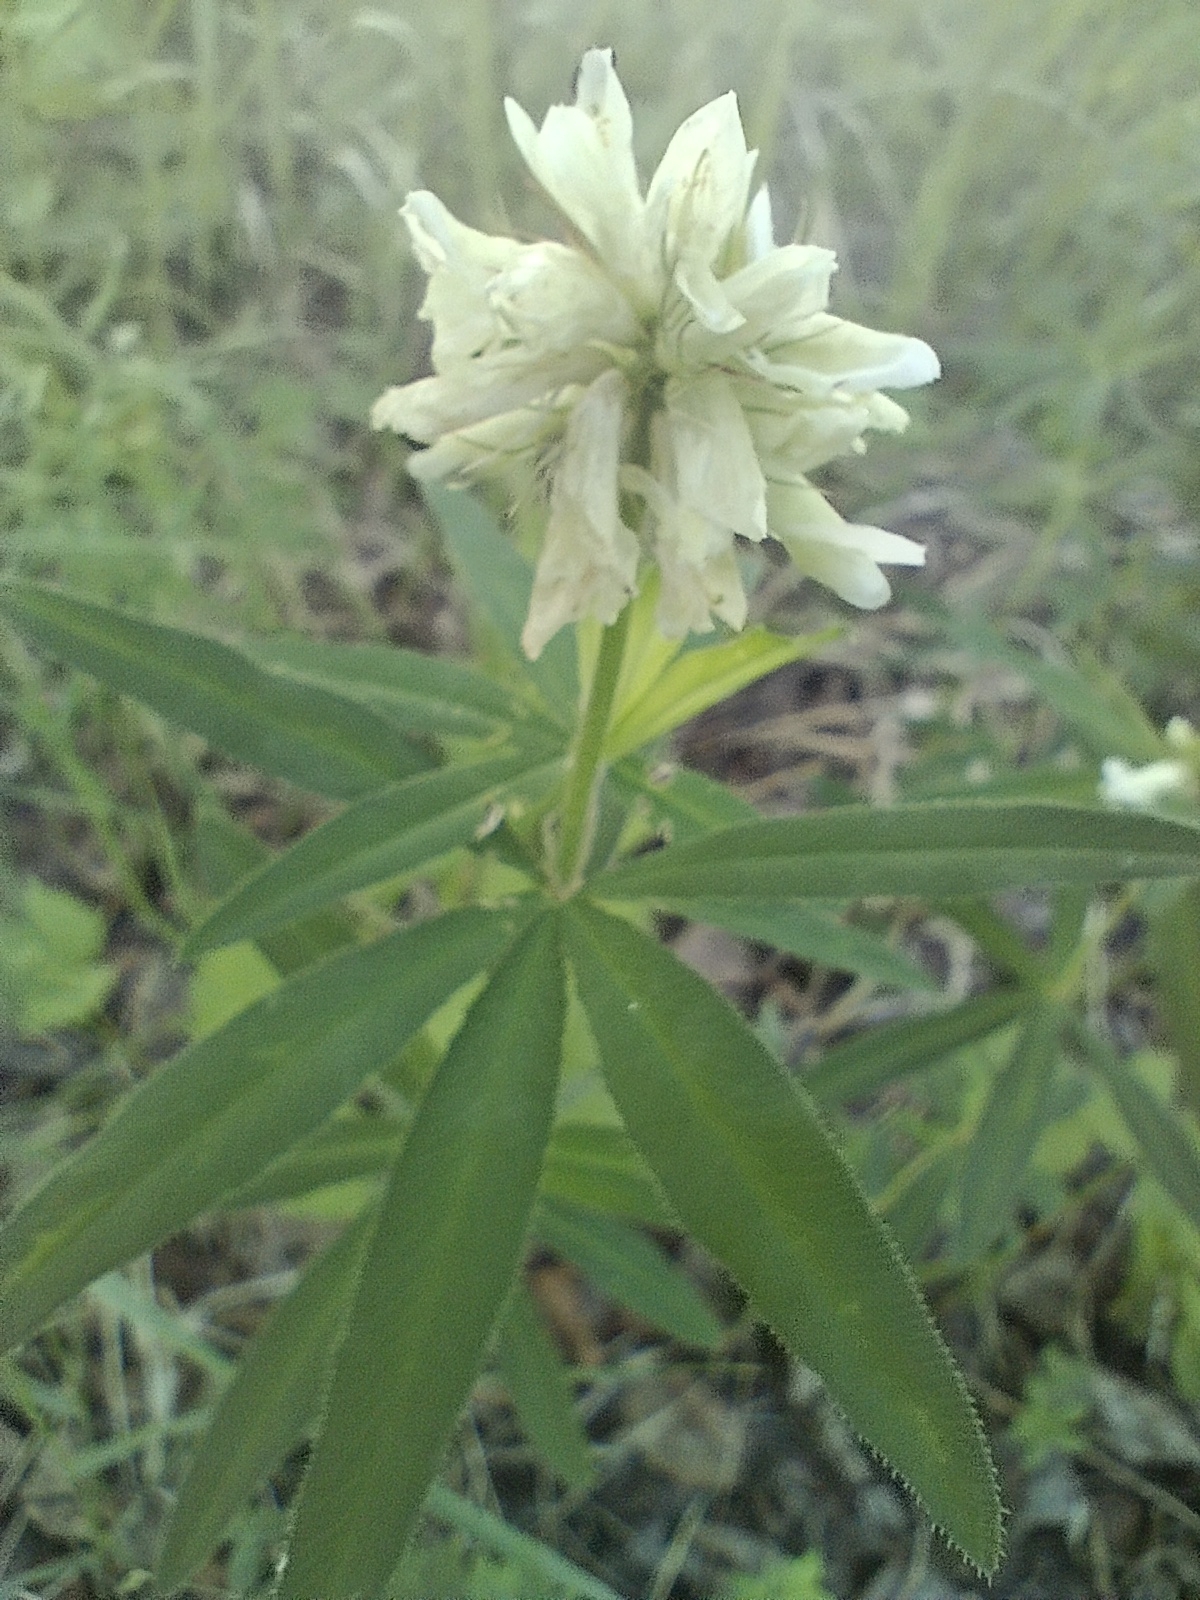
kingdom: Plantae
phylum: Tracheophyta
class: Magnoliopsida
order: Fabales
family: Fabaceae
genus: Trifolium
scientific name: Trifolium lupinaster
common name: Lupine clover
